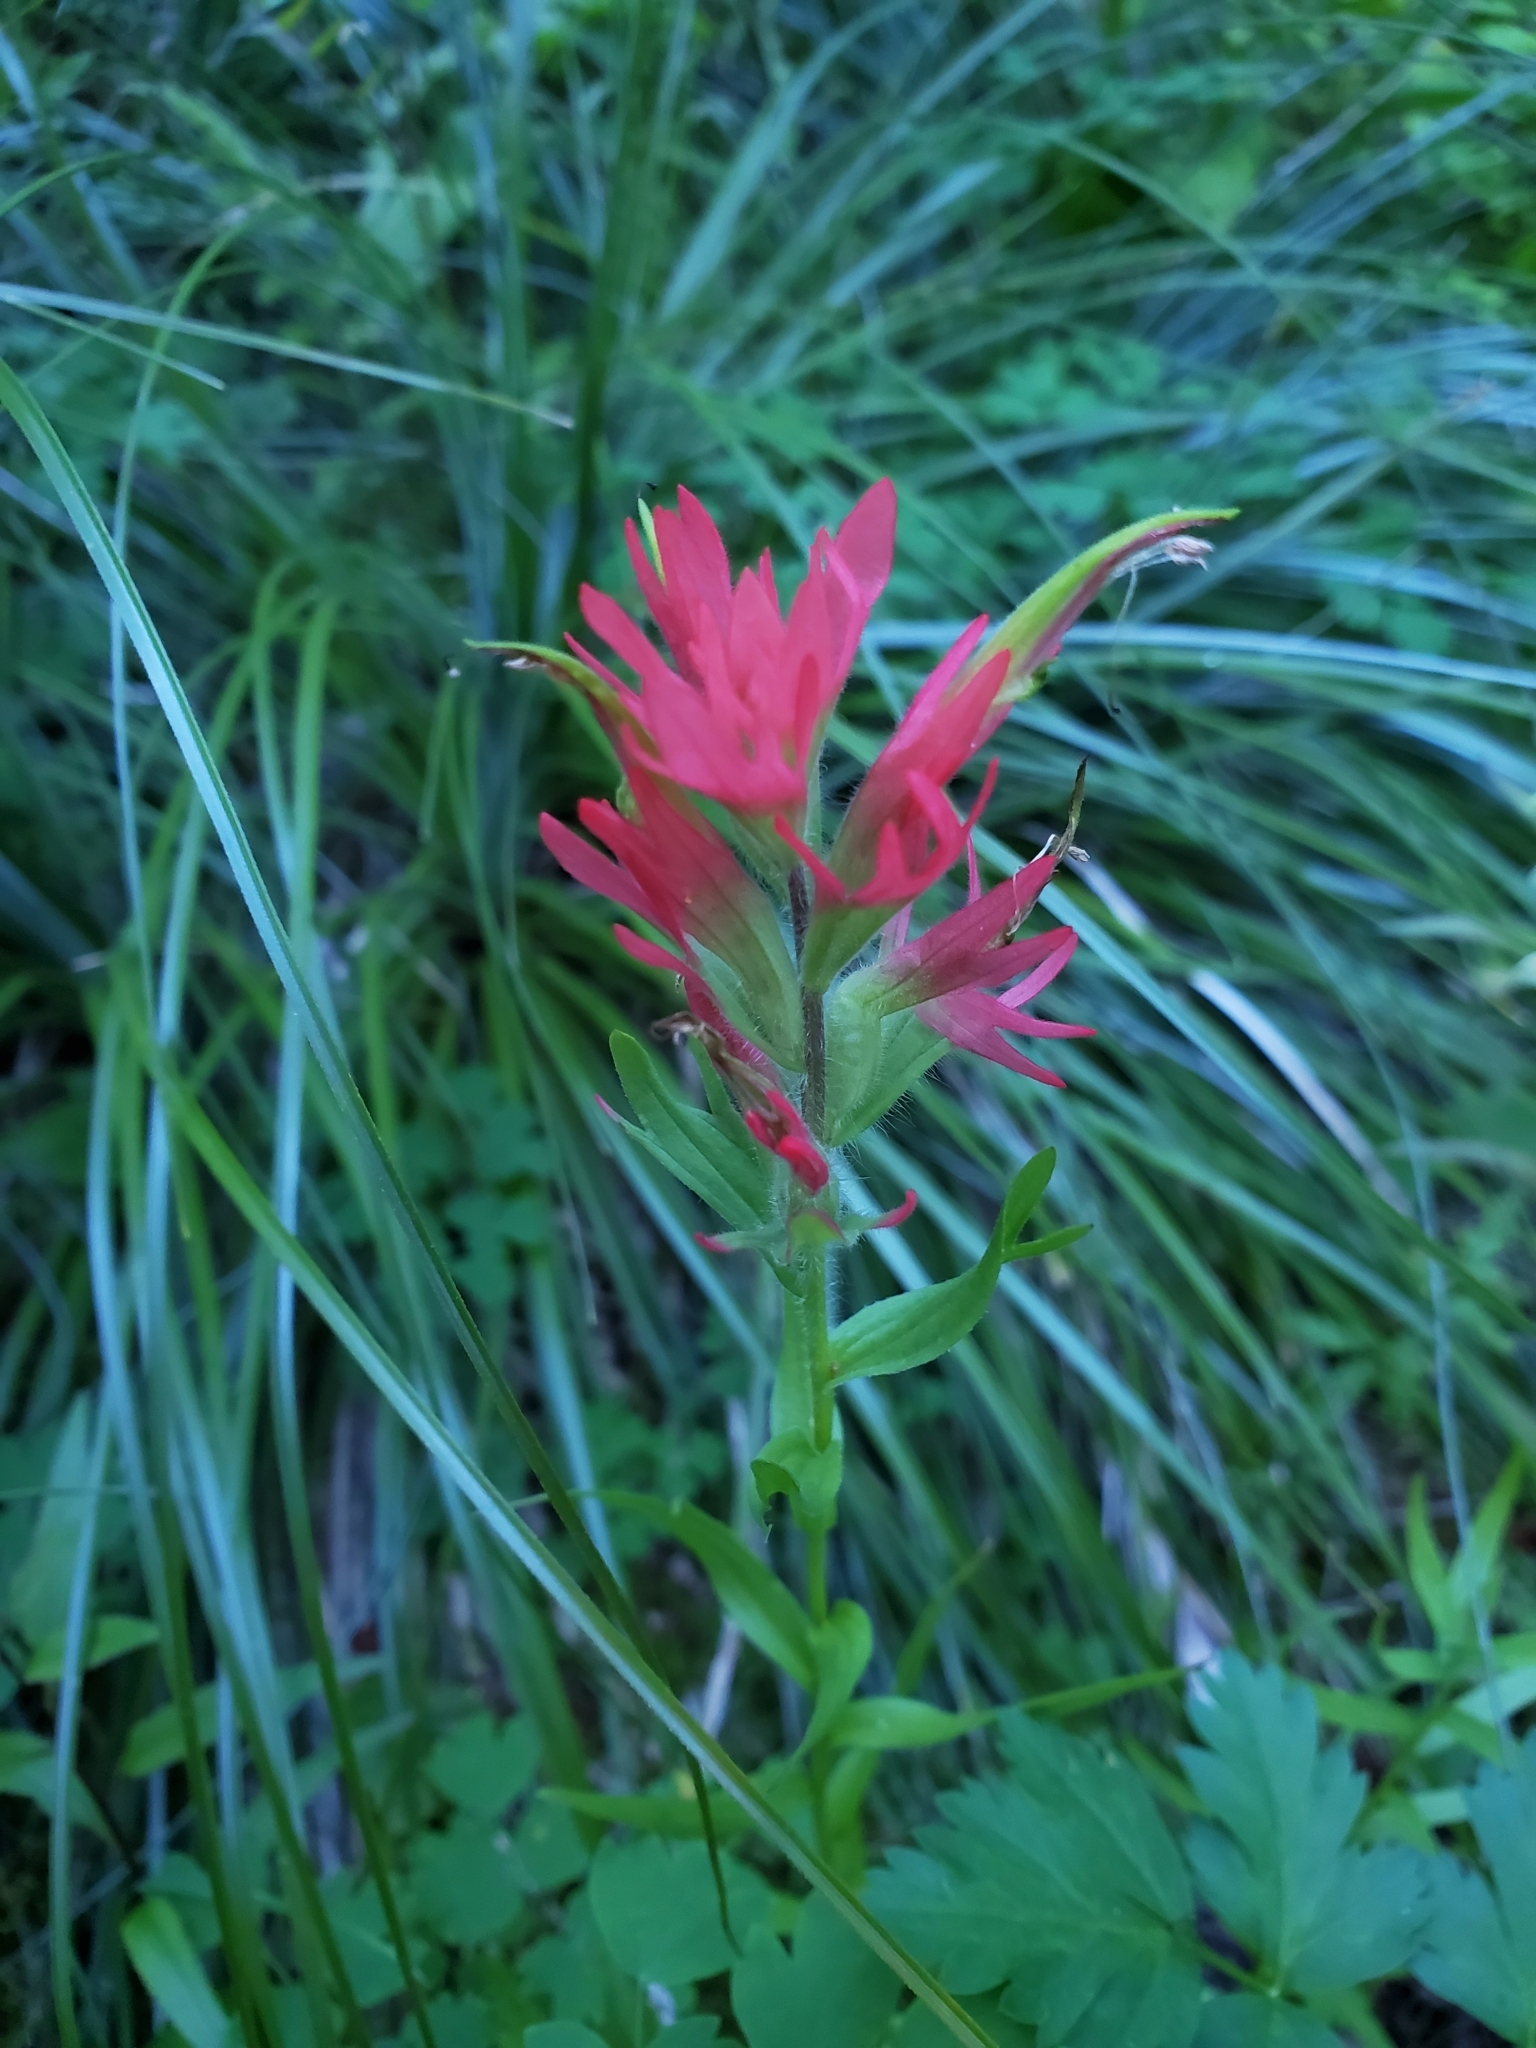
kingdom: Plantae
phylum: Tracheophyta
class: Magnoliopsida
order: Lamiales
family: Orobanchaceae
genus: Castilleja
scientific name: Castilleja rhexifolia
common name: Rocky mountain paintbrush
